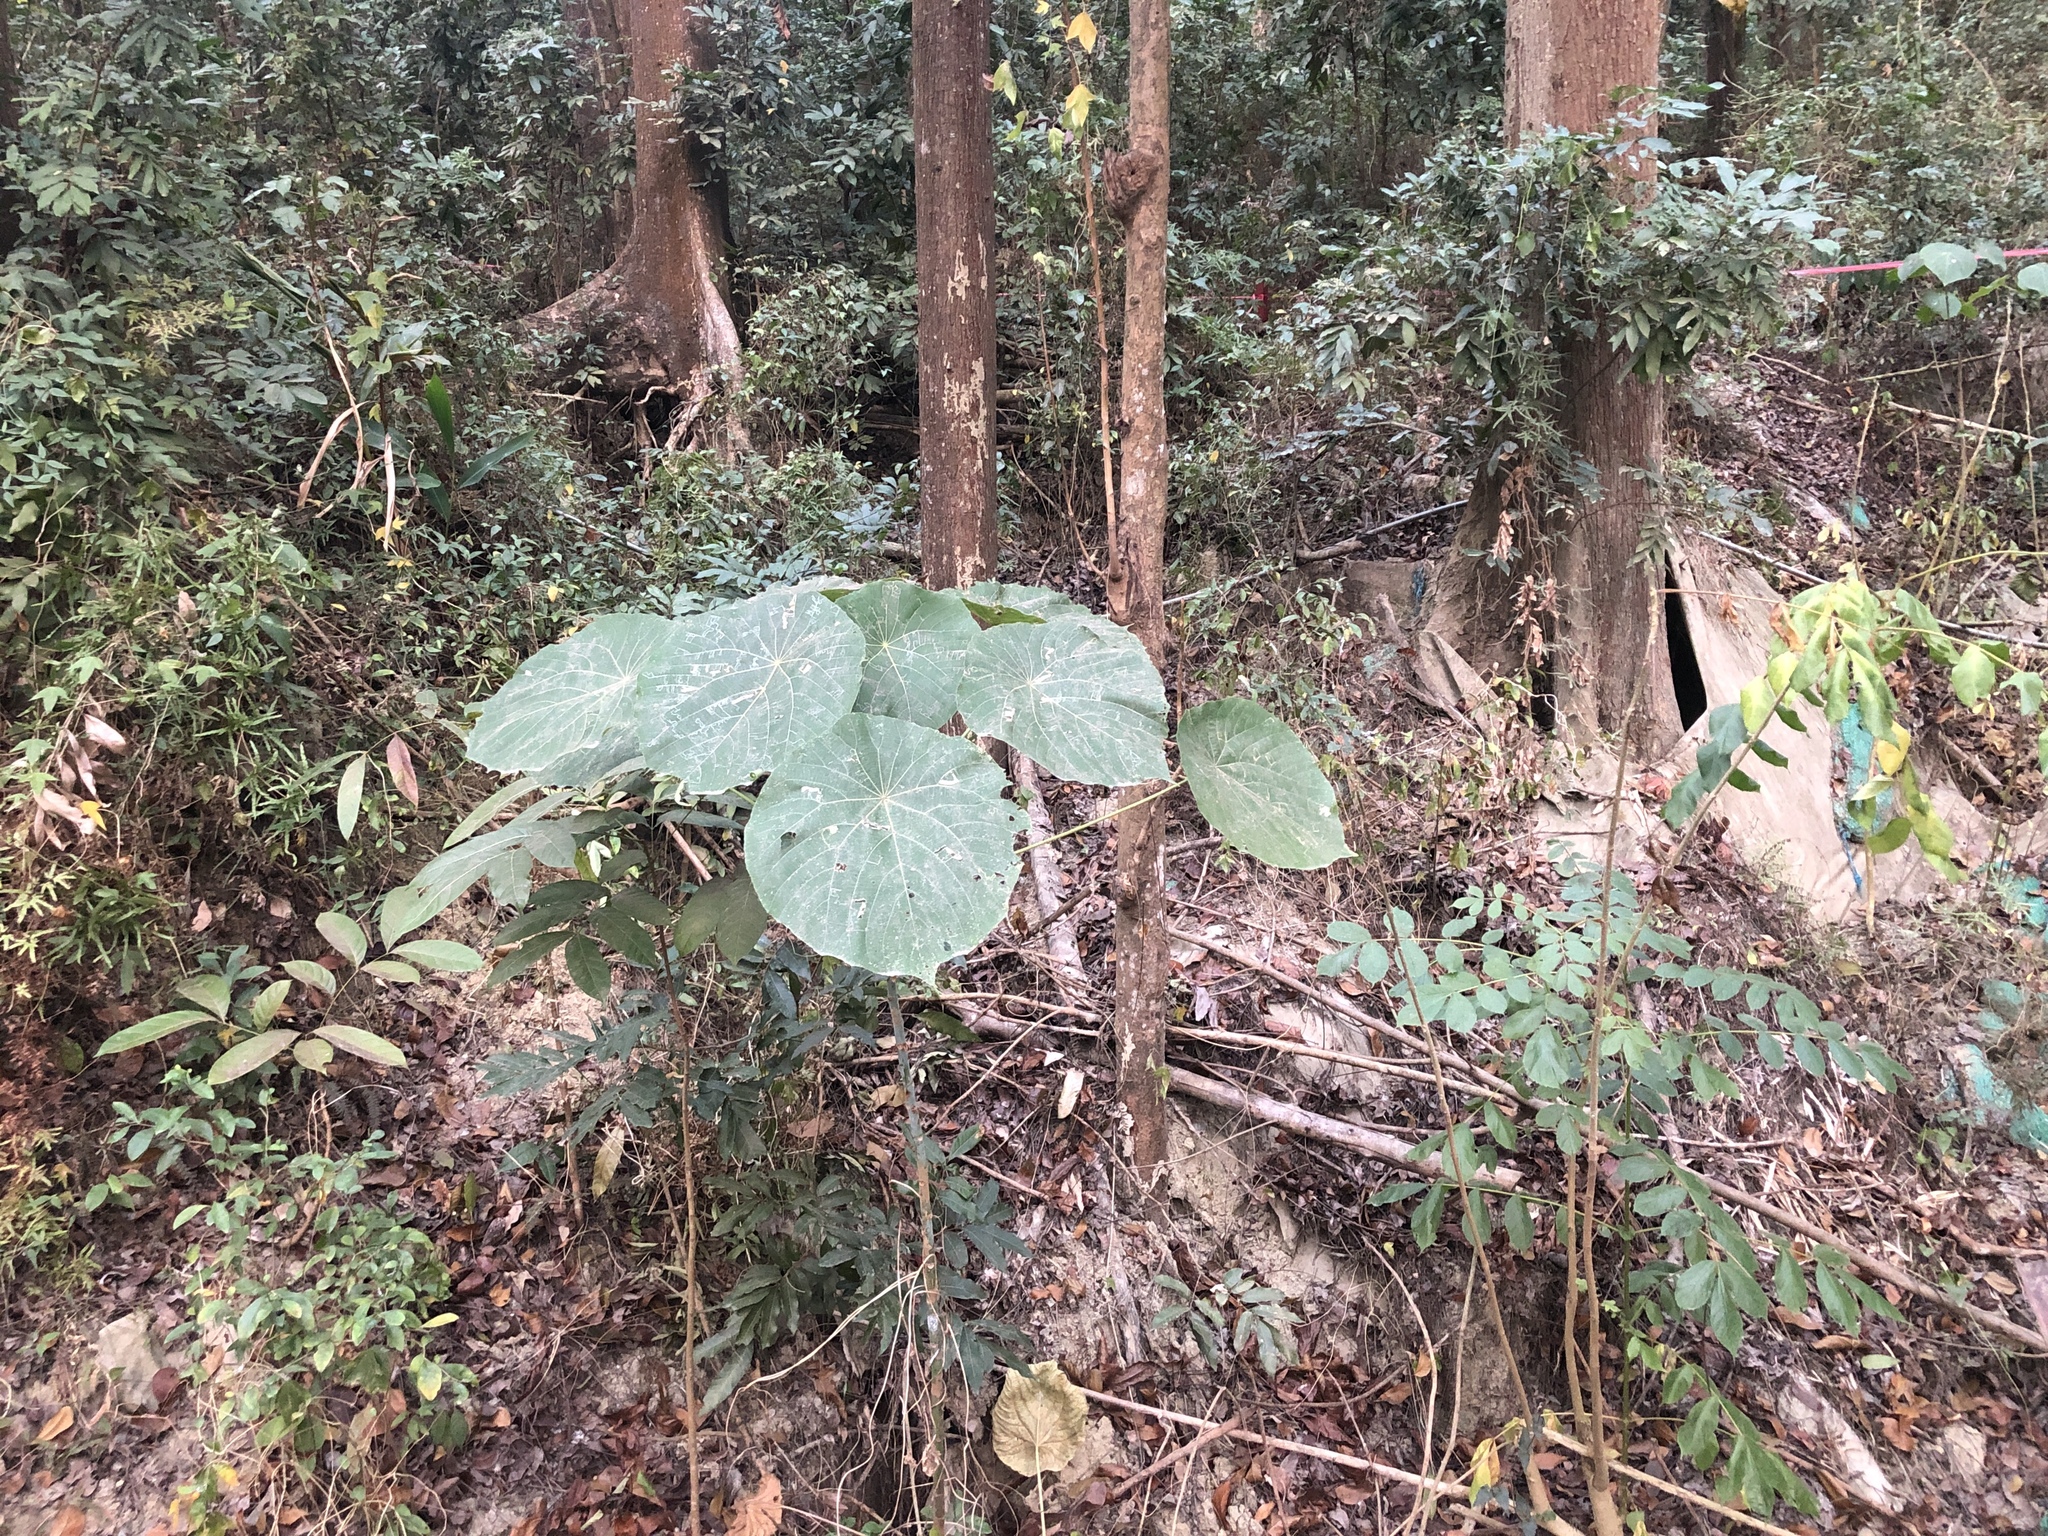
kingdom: Plantae
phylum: Tracheophyta
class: Magnoliopsida
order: Malpighiales
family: Euphorbiaceae
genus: Macaranga
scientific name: Macaranga tanarius
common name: Parasol leaf tree
